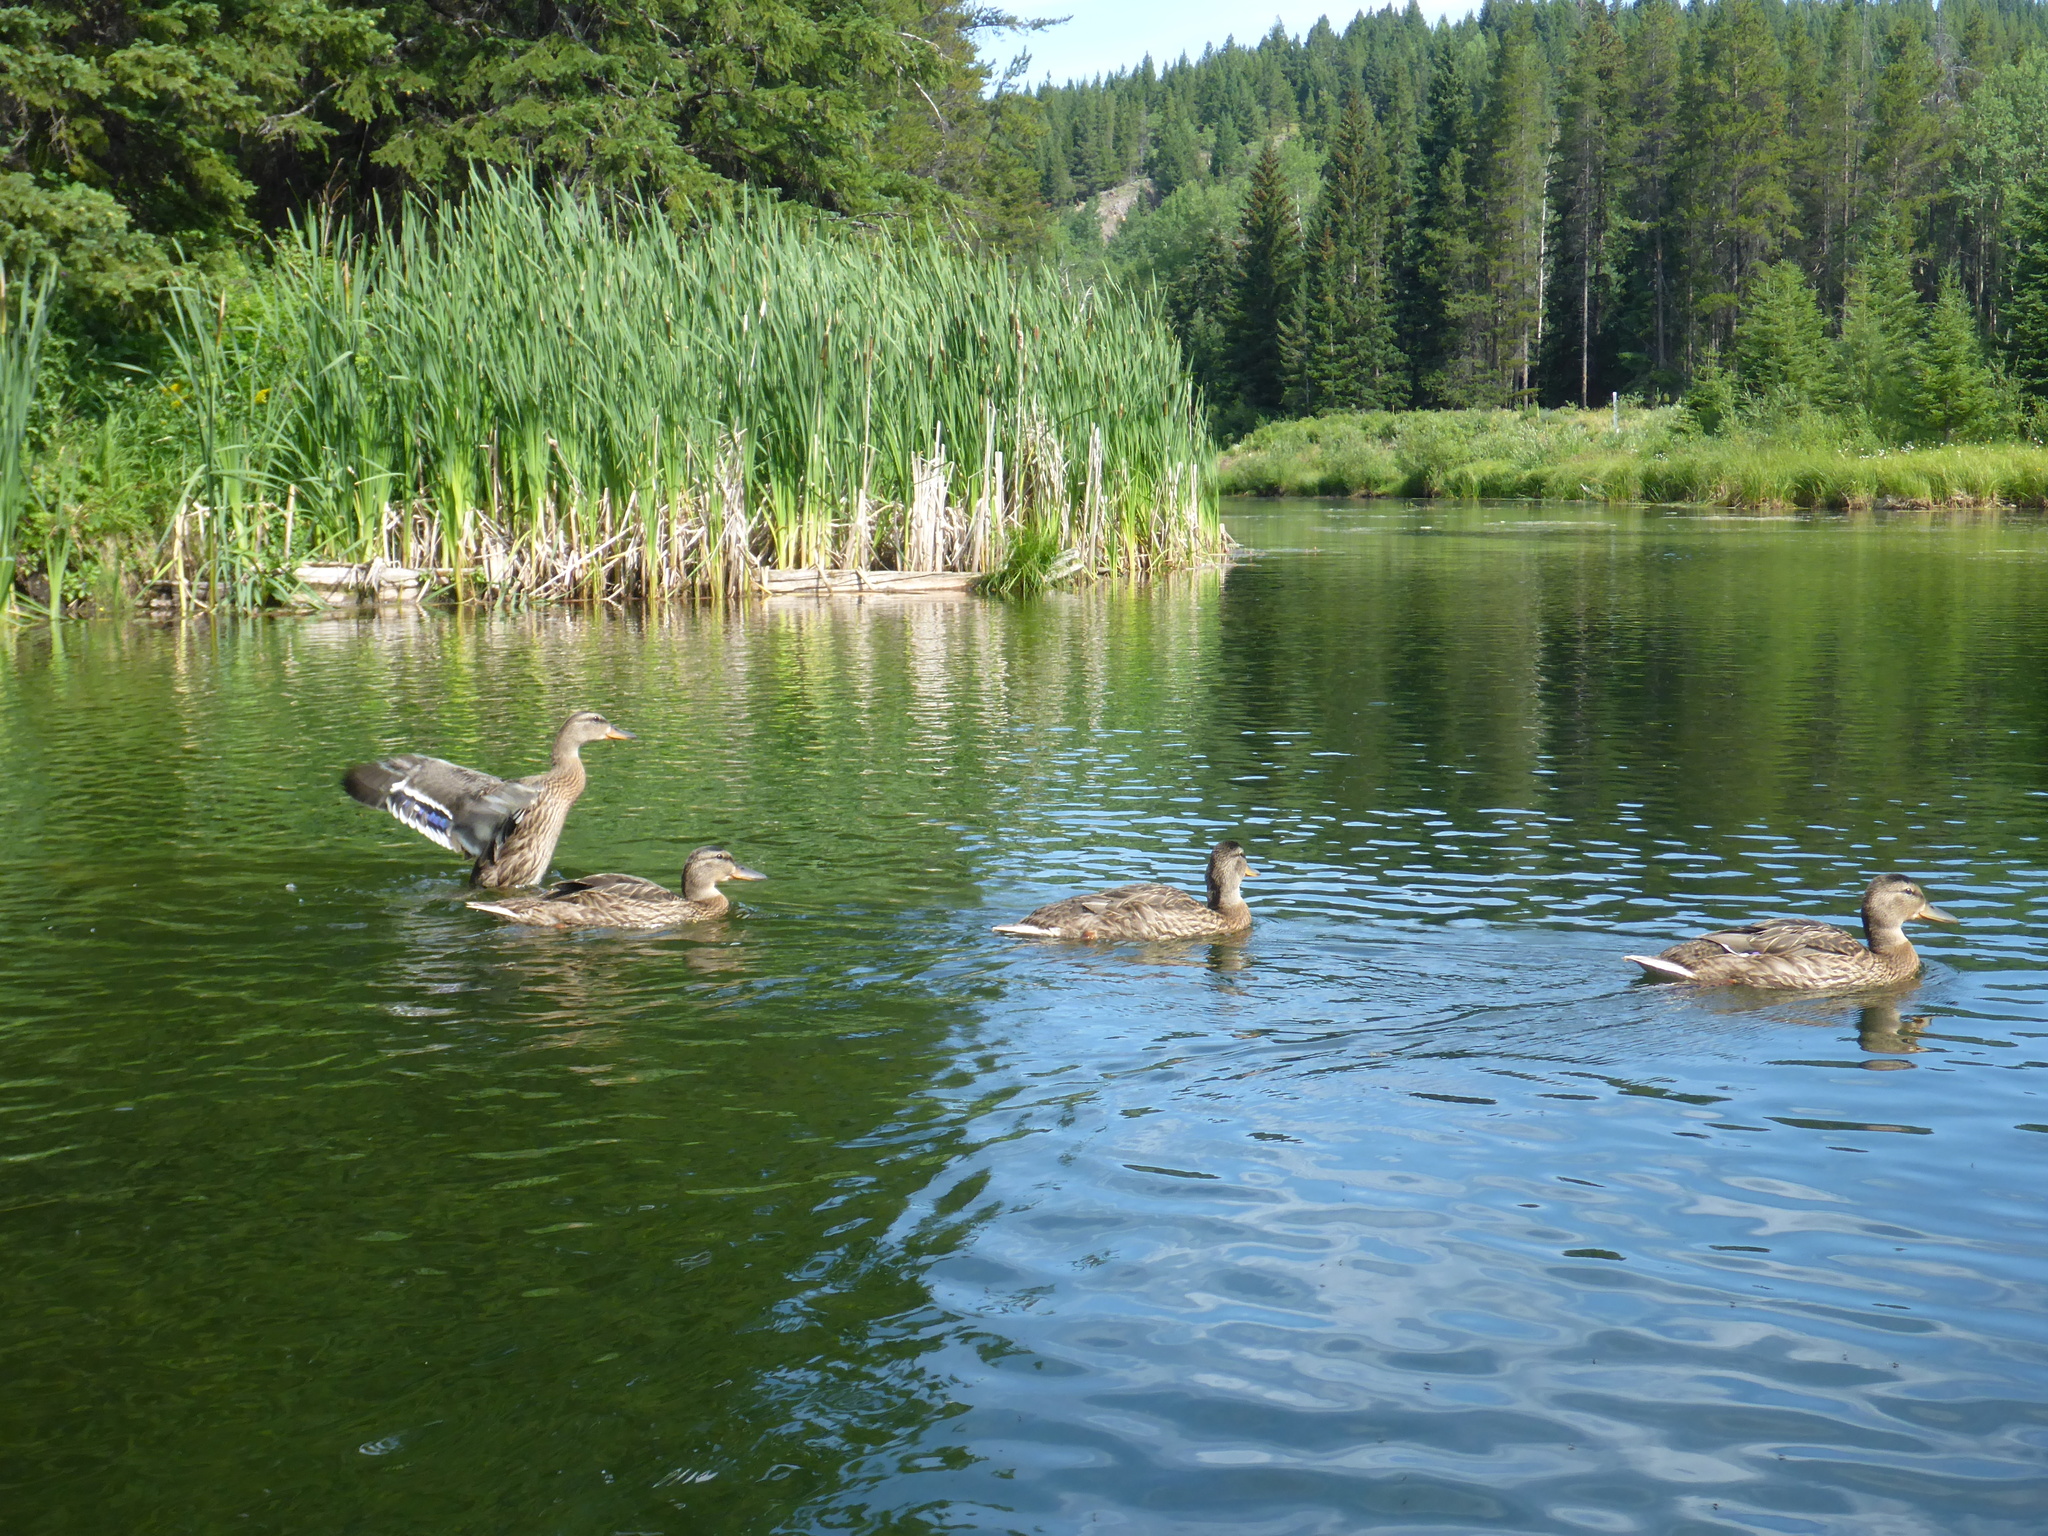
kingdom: Animalia
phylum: Chordata
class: Aves
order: Anseriformes
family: Anatidae
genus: Anas
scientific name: Anas platyrhynchos
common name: Mallard
